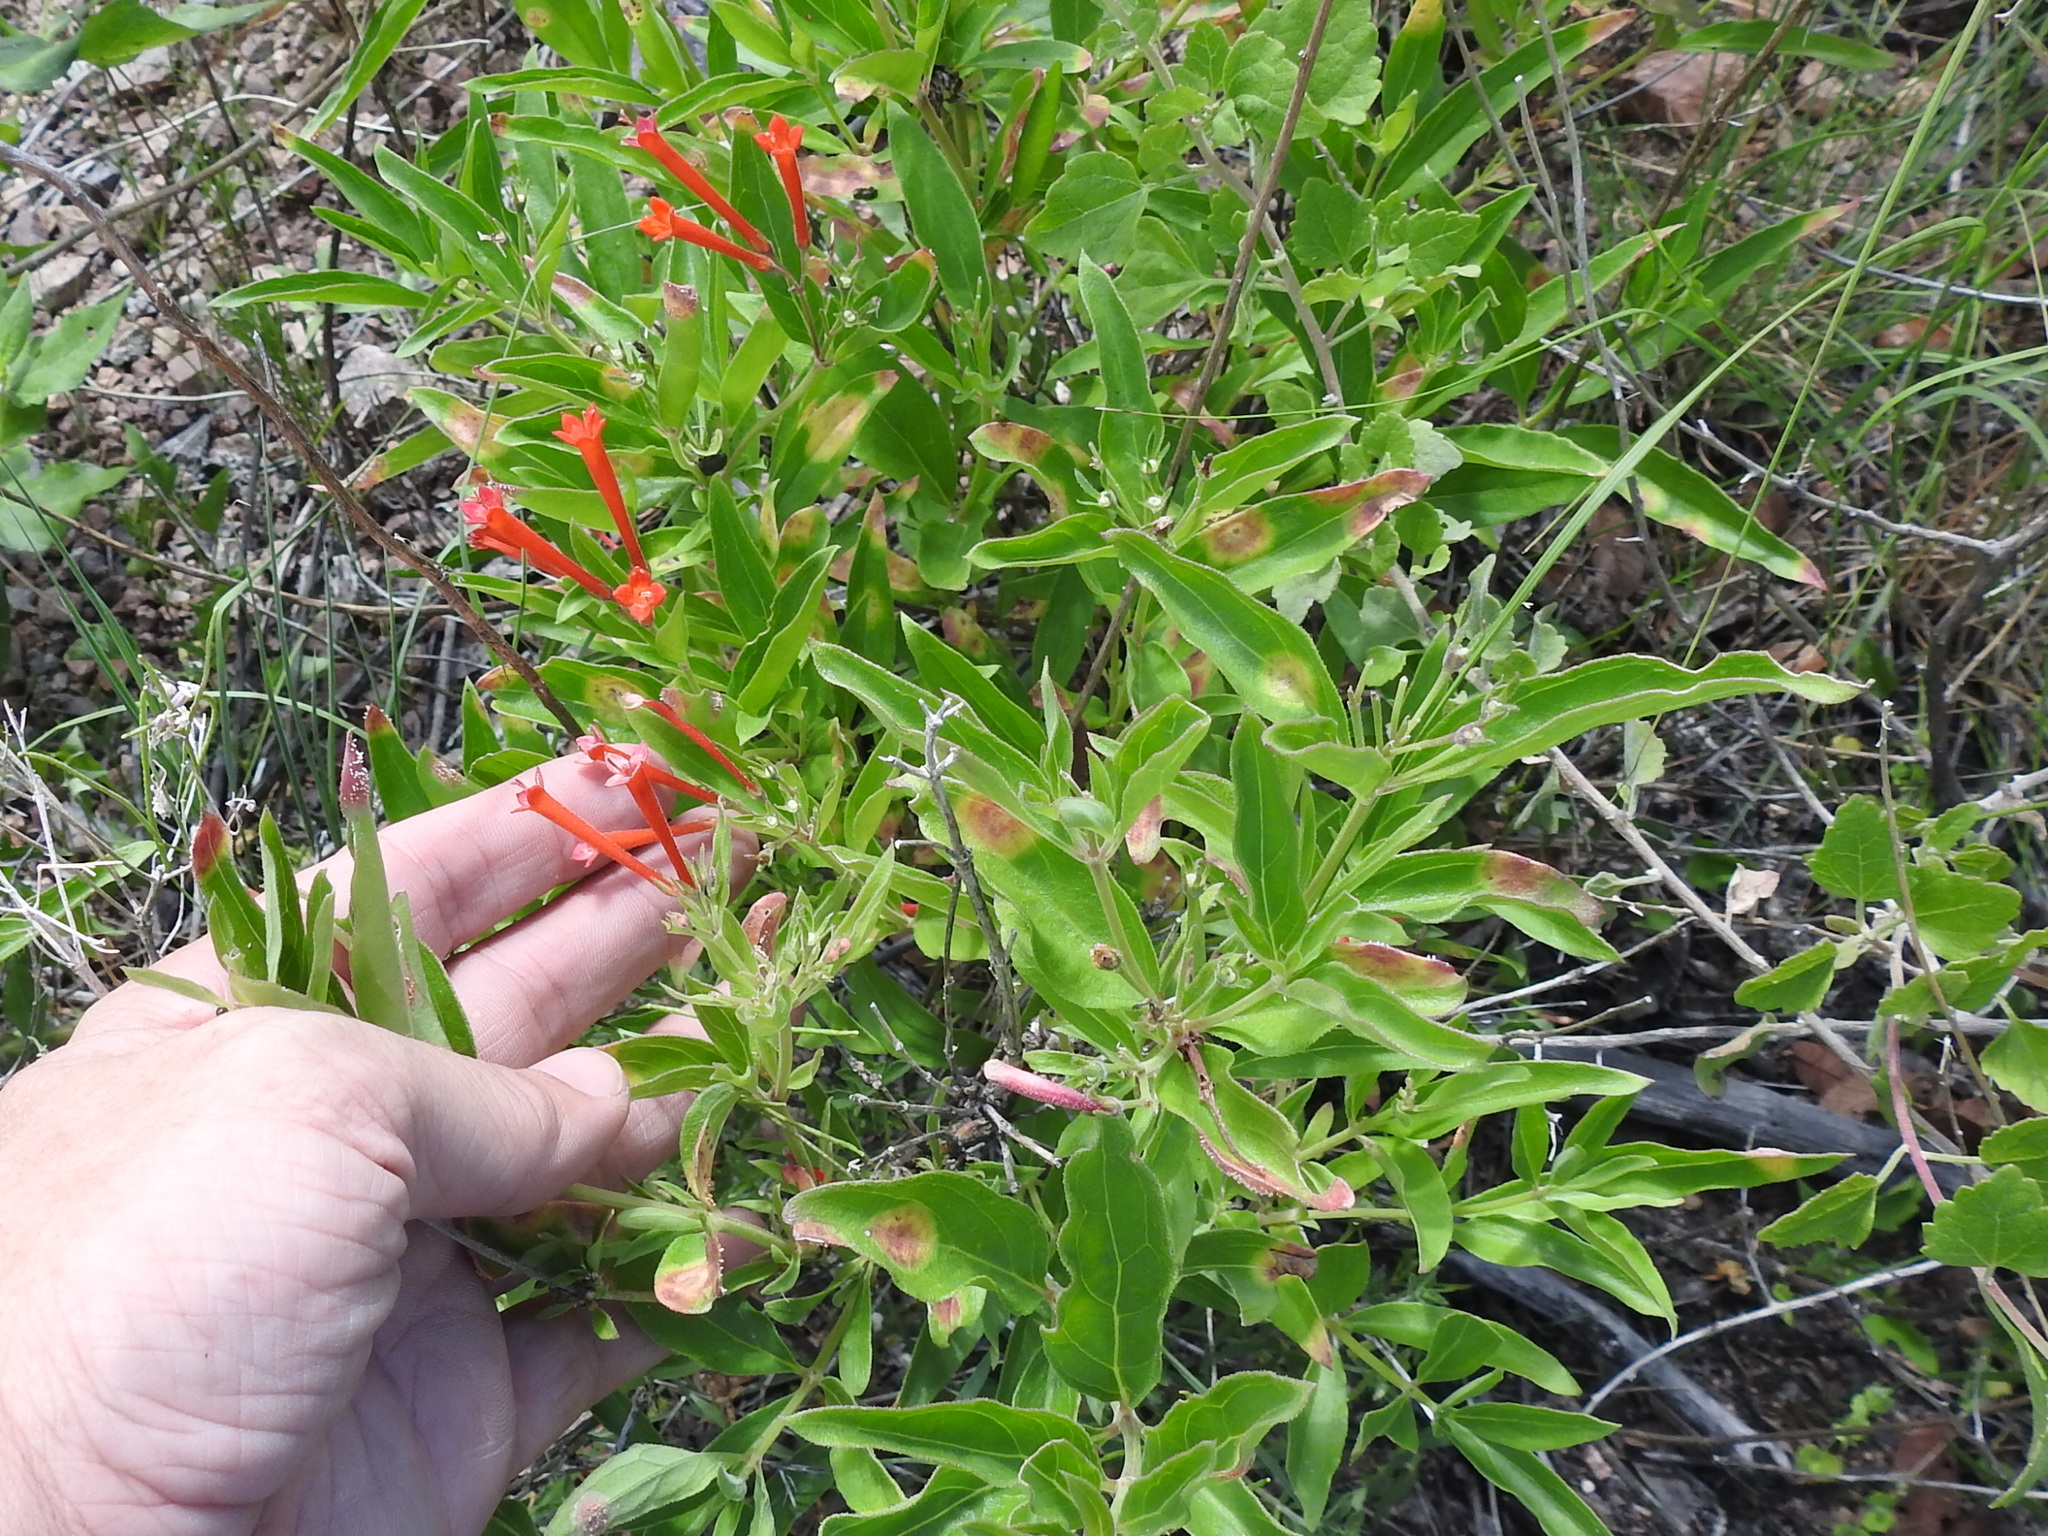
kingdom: Plantae
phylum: Tracheophyta
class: Magnoliopsida
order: Gentianales
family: Rubiaceae
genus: Bouvardia
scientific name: Bouvardia ternifolia
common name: Scarlet bouvardia
